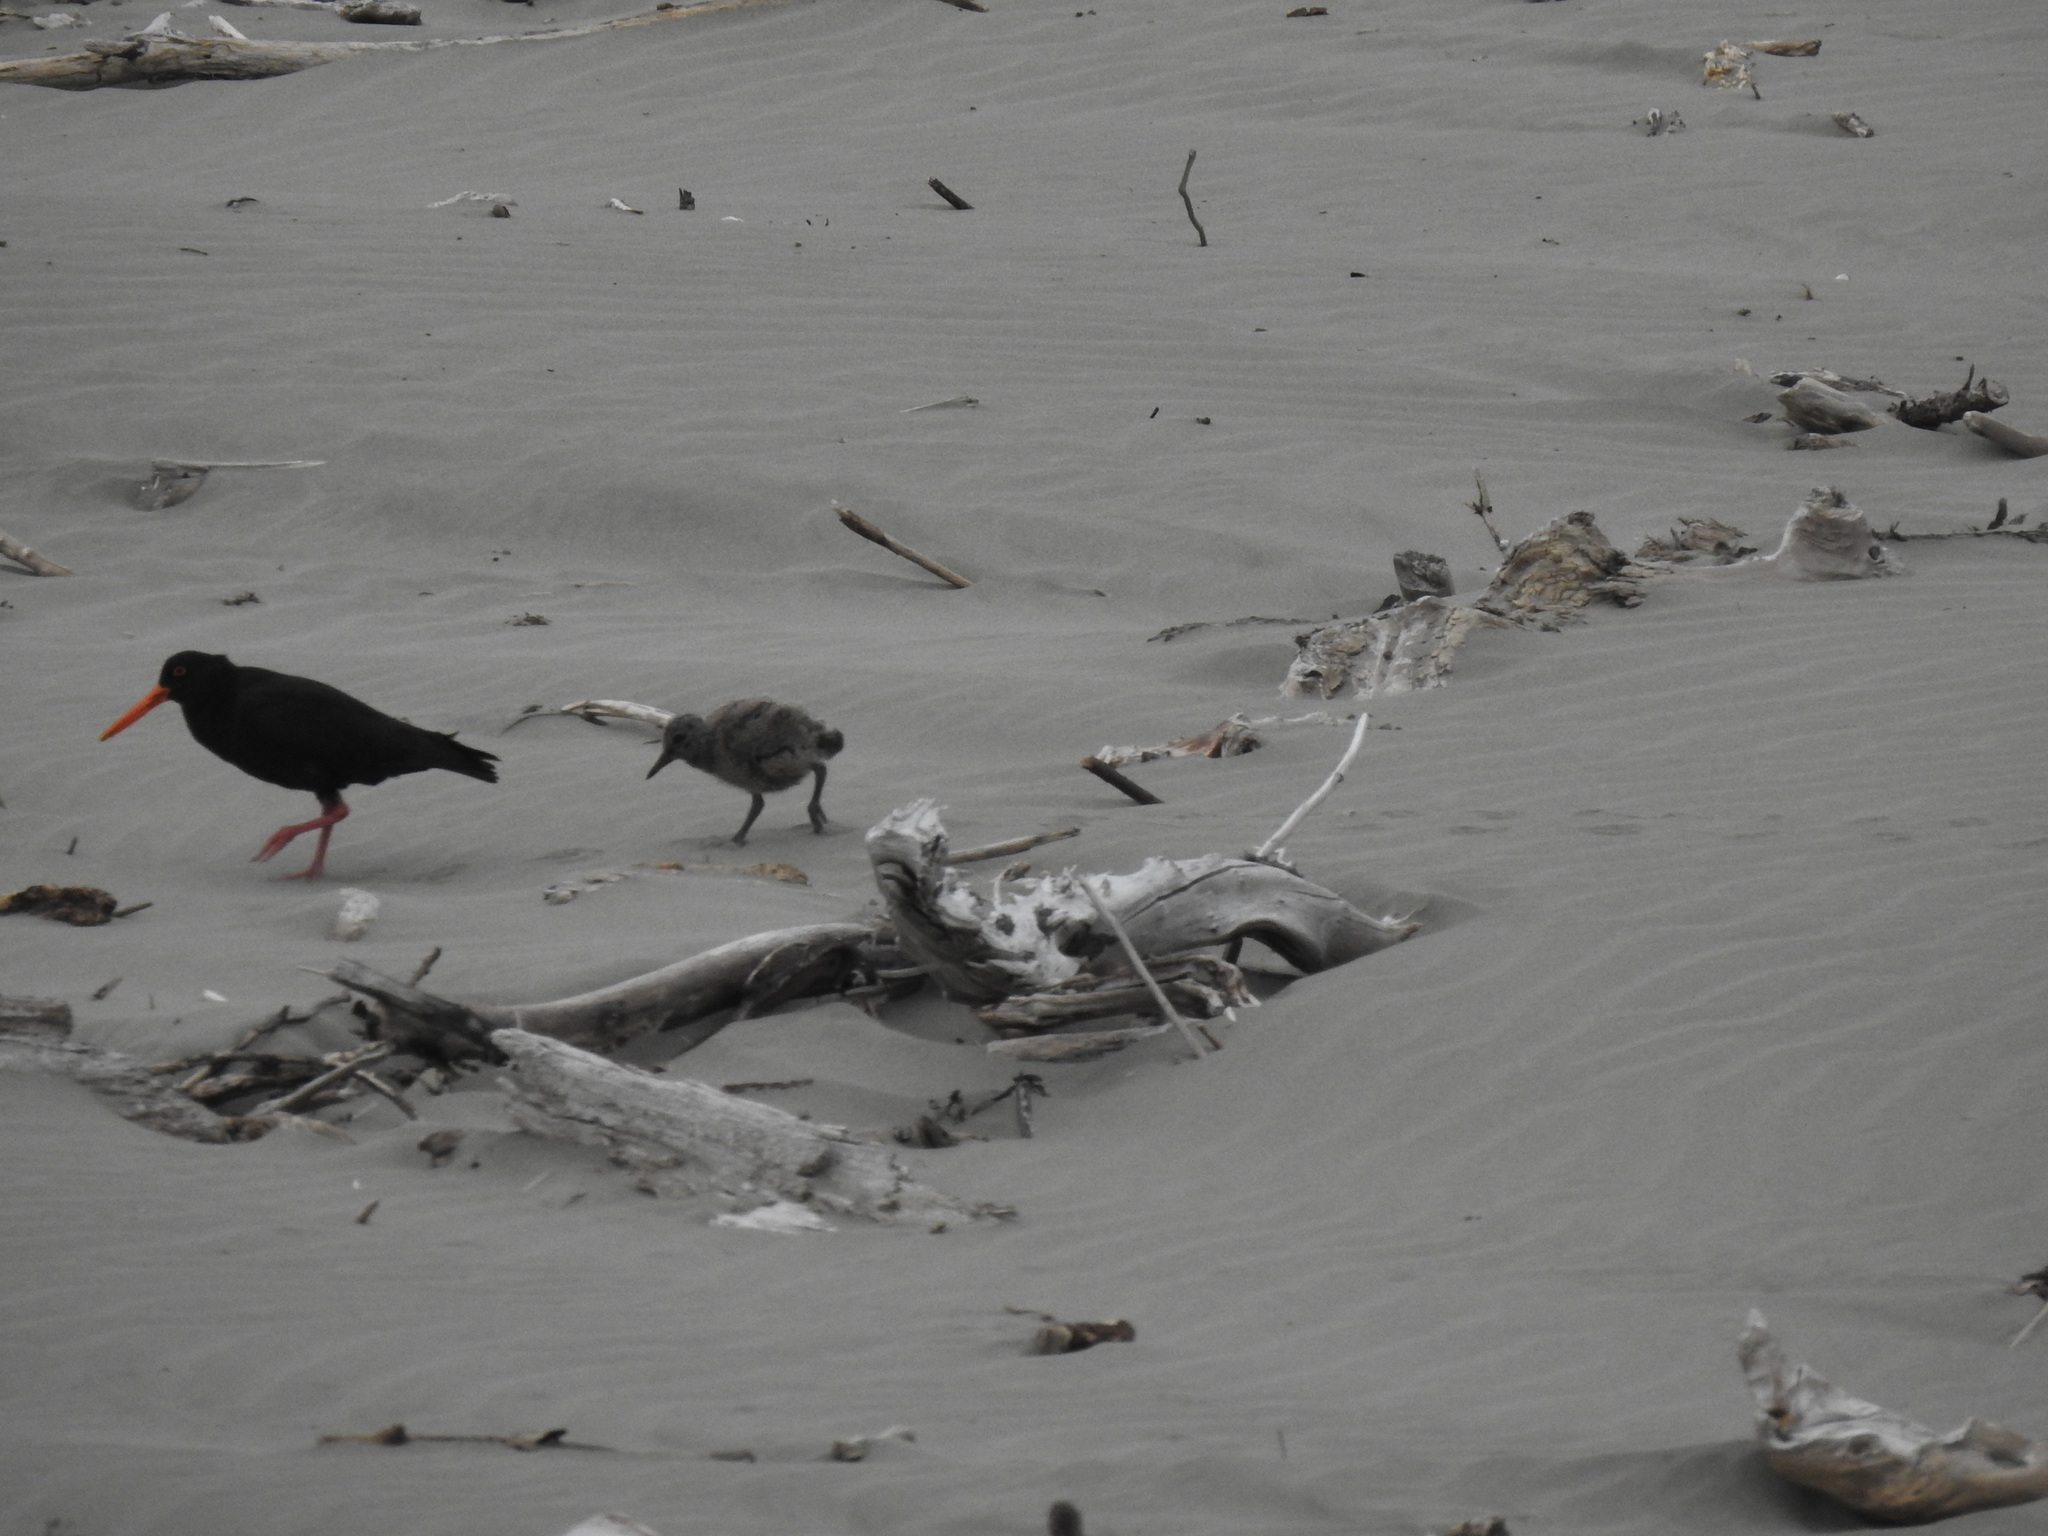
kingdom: Animalia
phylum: Chordata
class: Aves
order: Charadriiformes
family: Haematopodidae
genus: Haematopus
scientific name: Haematopus unicolor
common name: Variable oystercatcher
